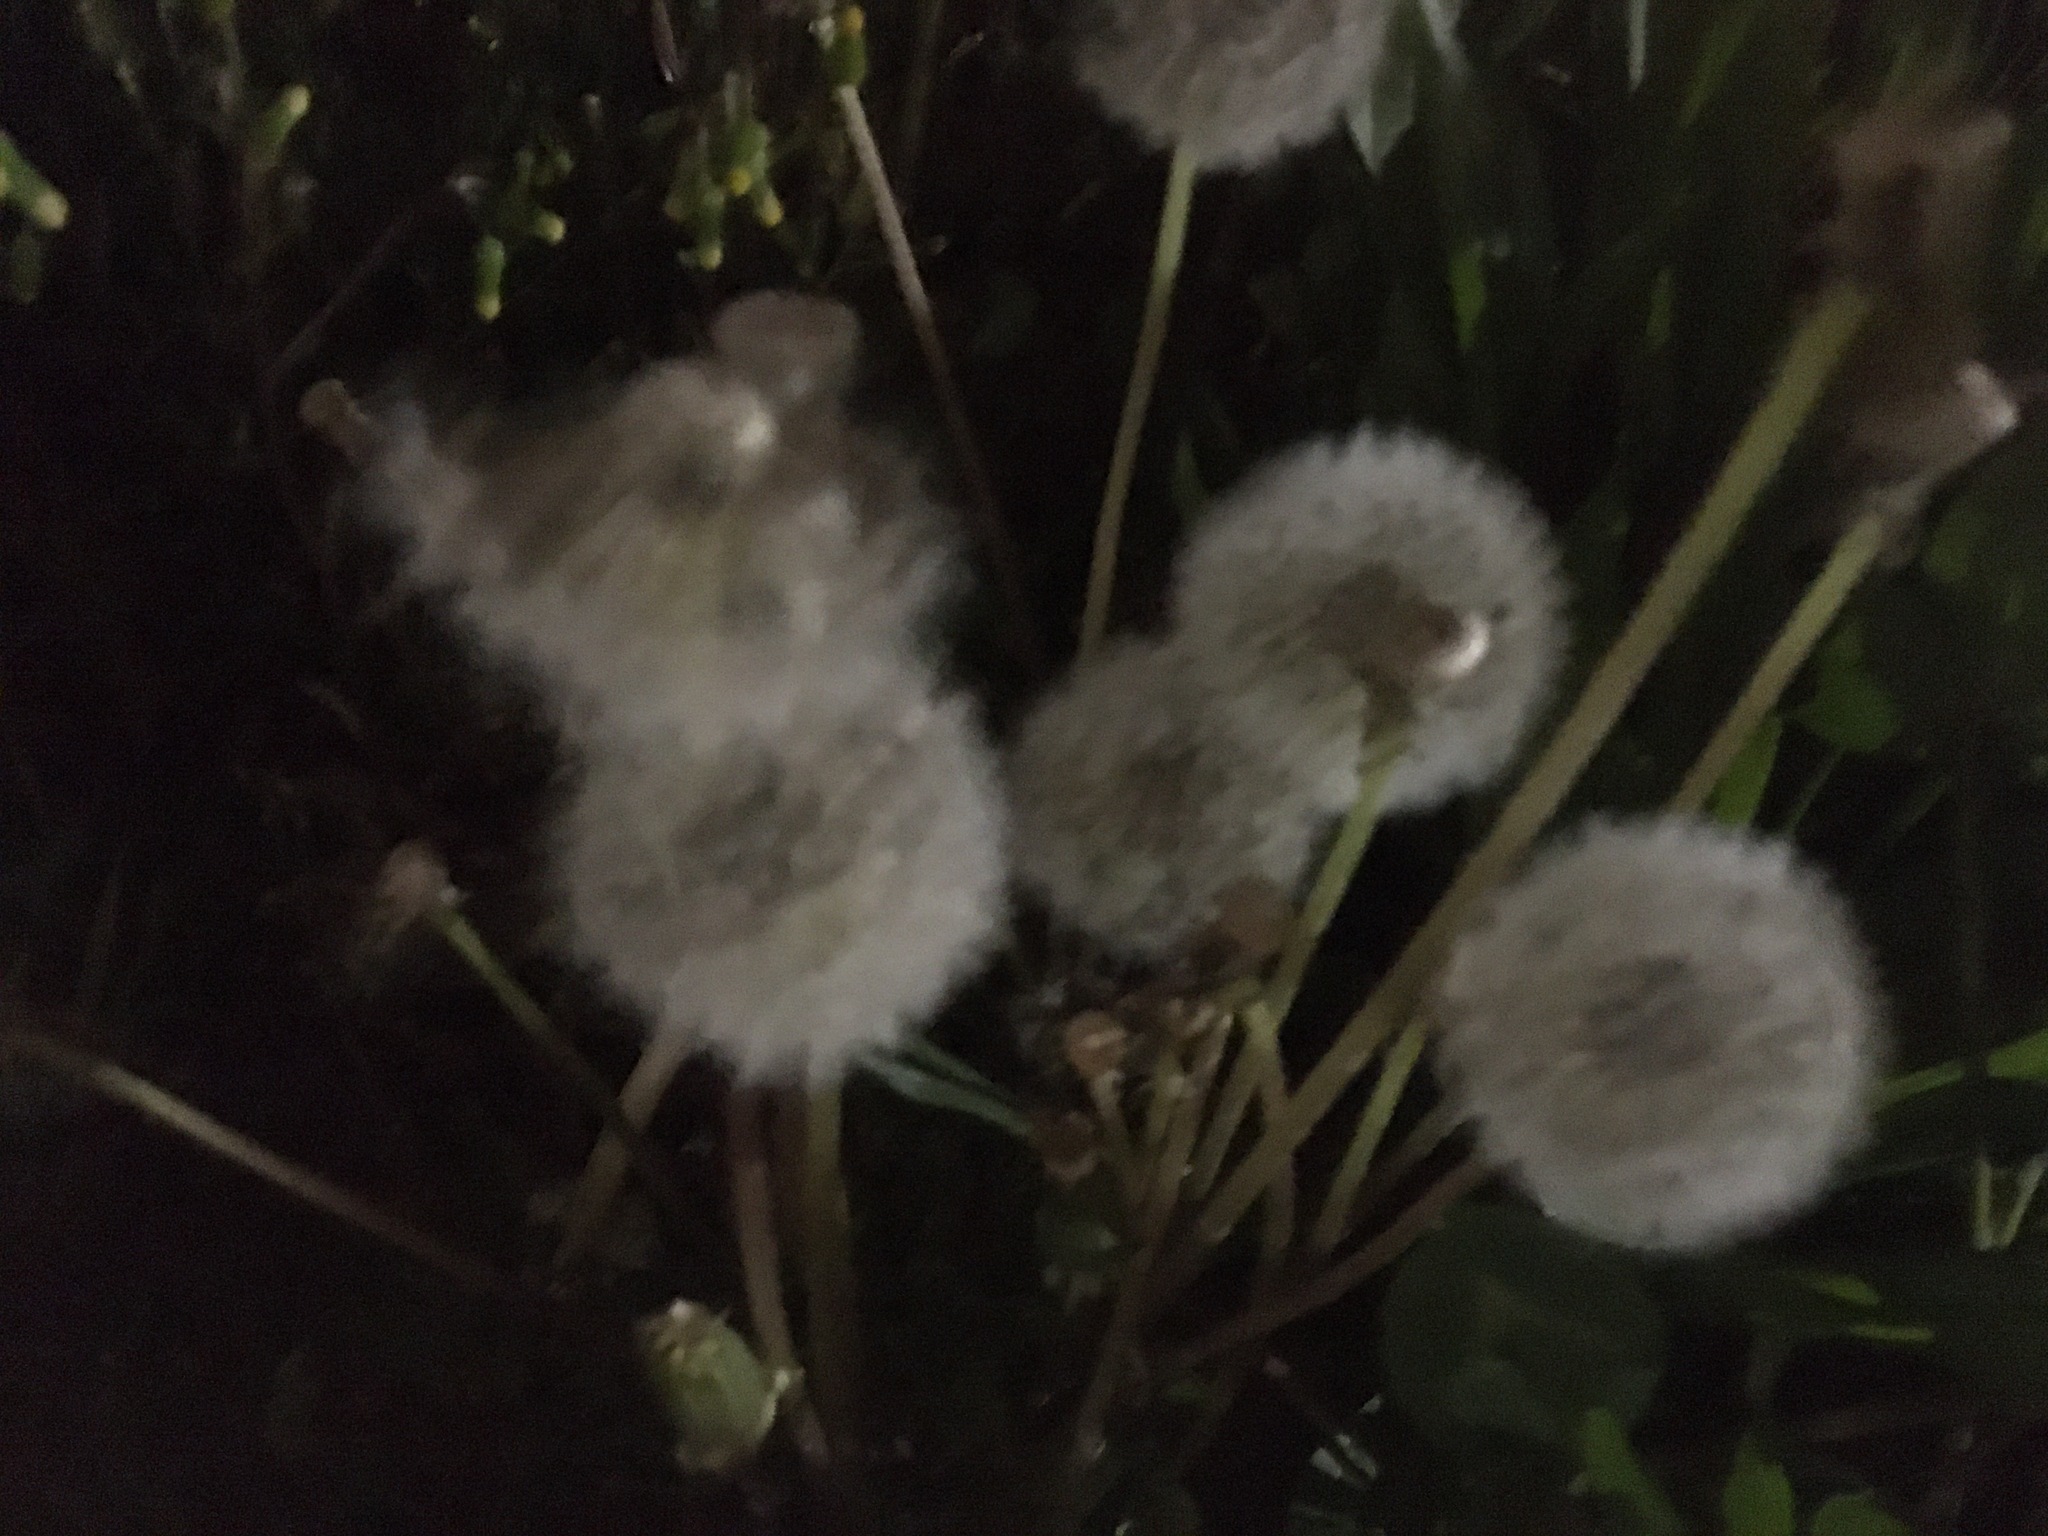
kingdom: Plantae
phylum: Tracheophyta
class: Magnoliopsida
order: Asterales
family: Asteraceae
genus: Taraxacum
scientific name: Taraxacum officinale
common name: Common dandelion
